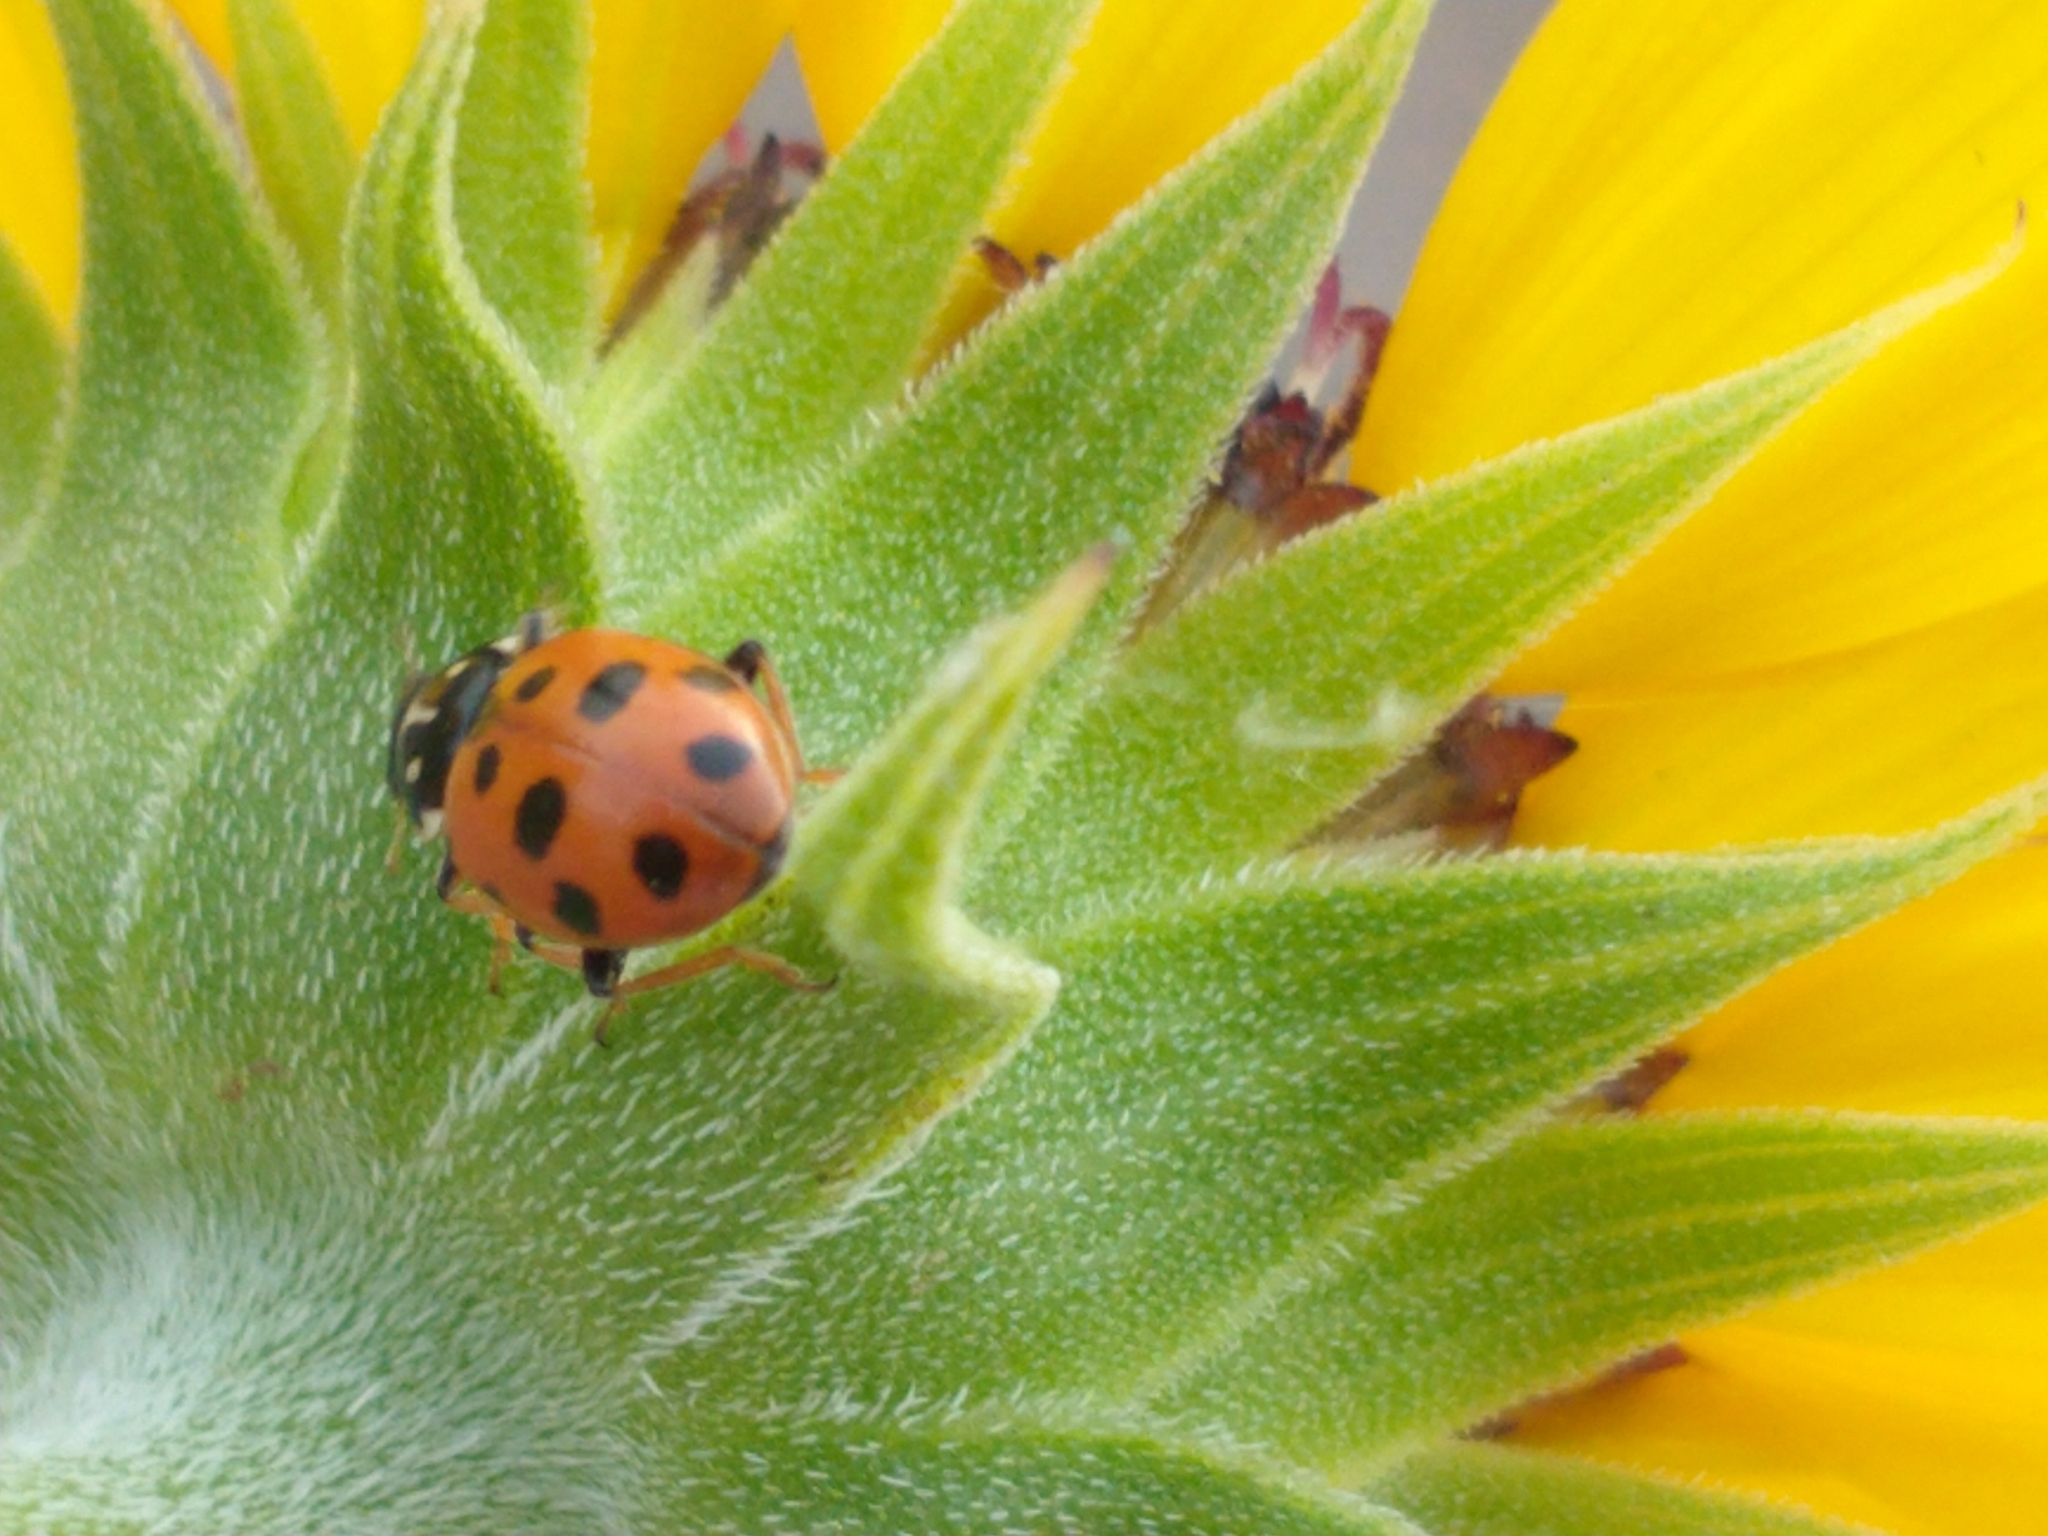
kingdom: Animalia
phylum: Arthropoda
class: Insecta
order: Coleoptera
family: Coccinellidae
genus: Hippodamia
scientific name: Hippodamia variegata
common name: Ladybird beetle
